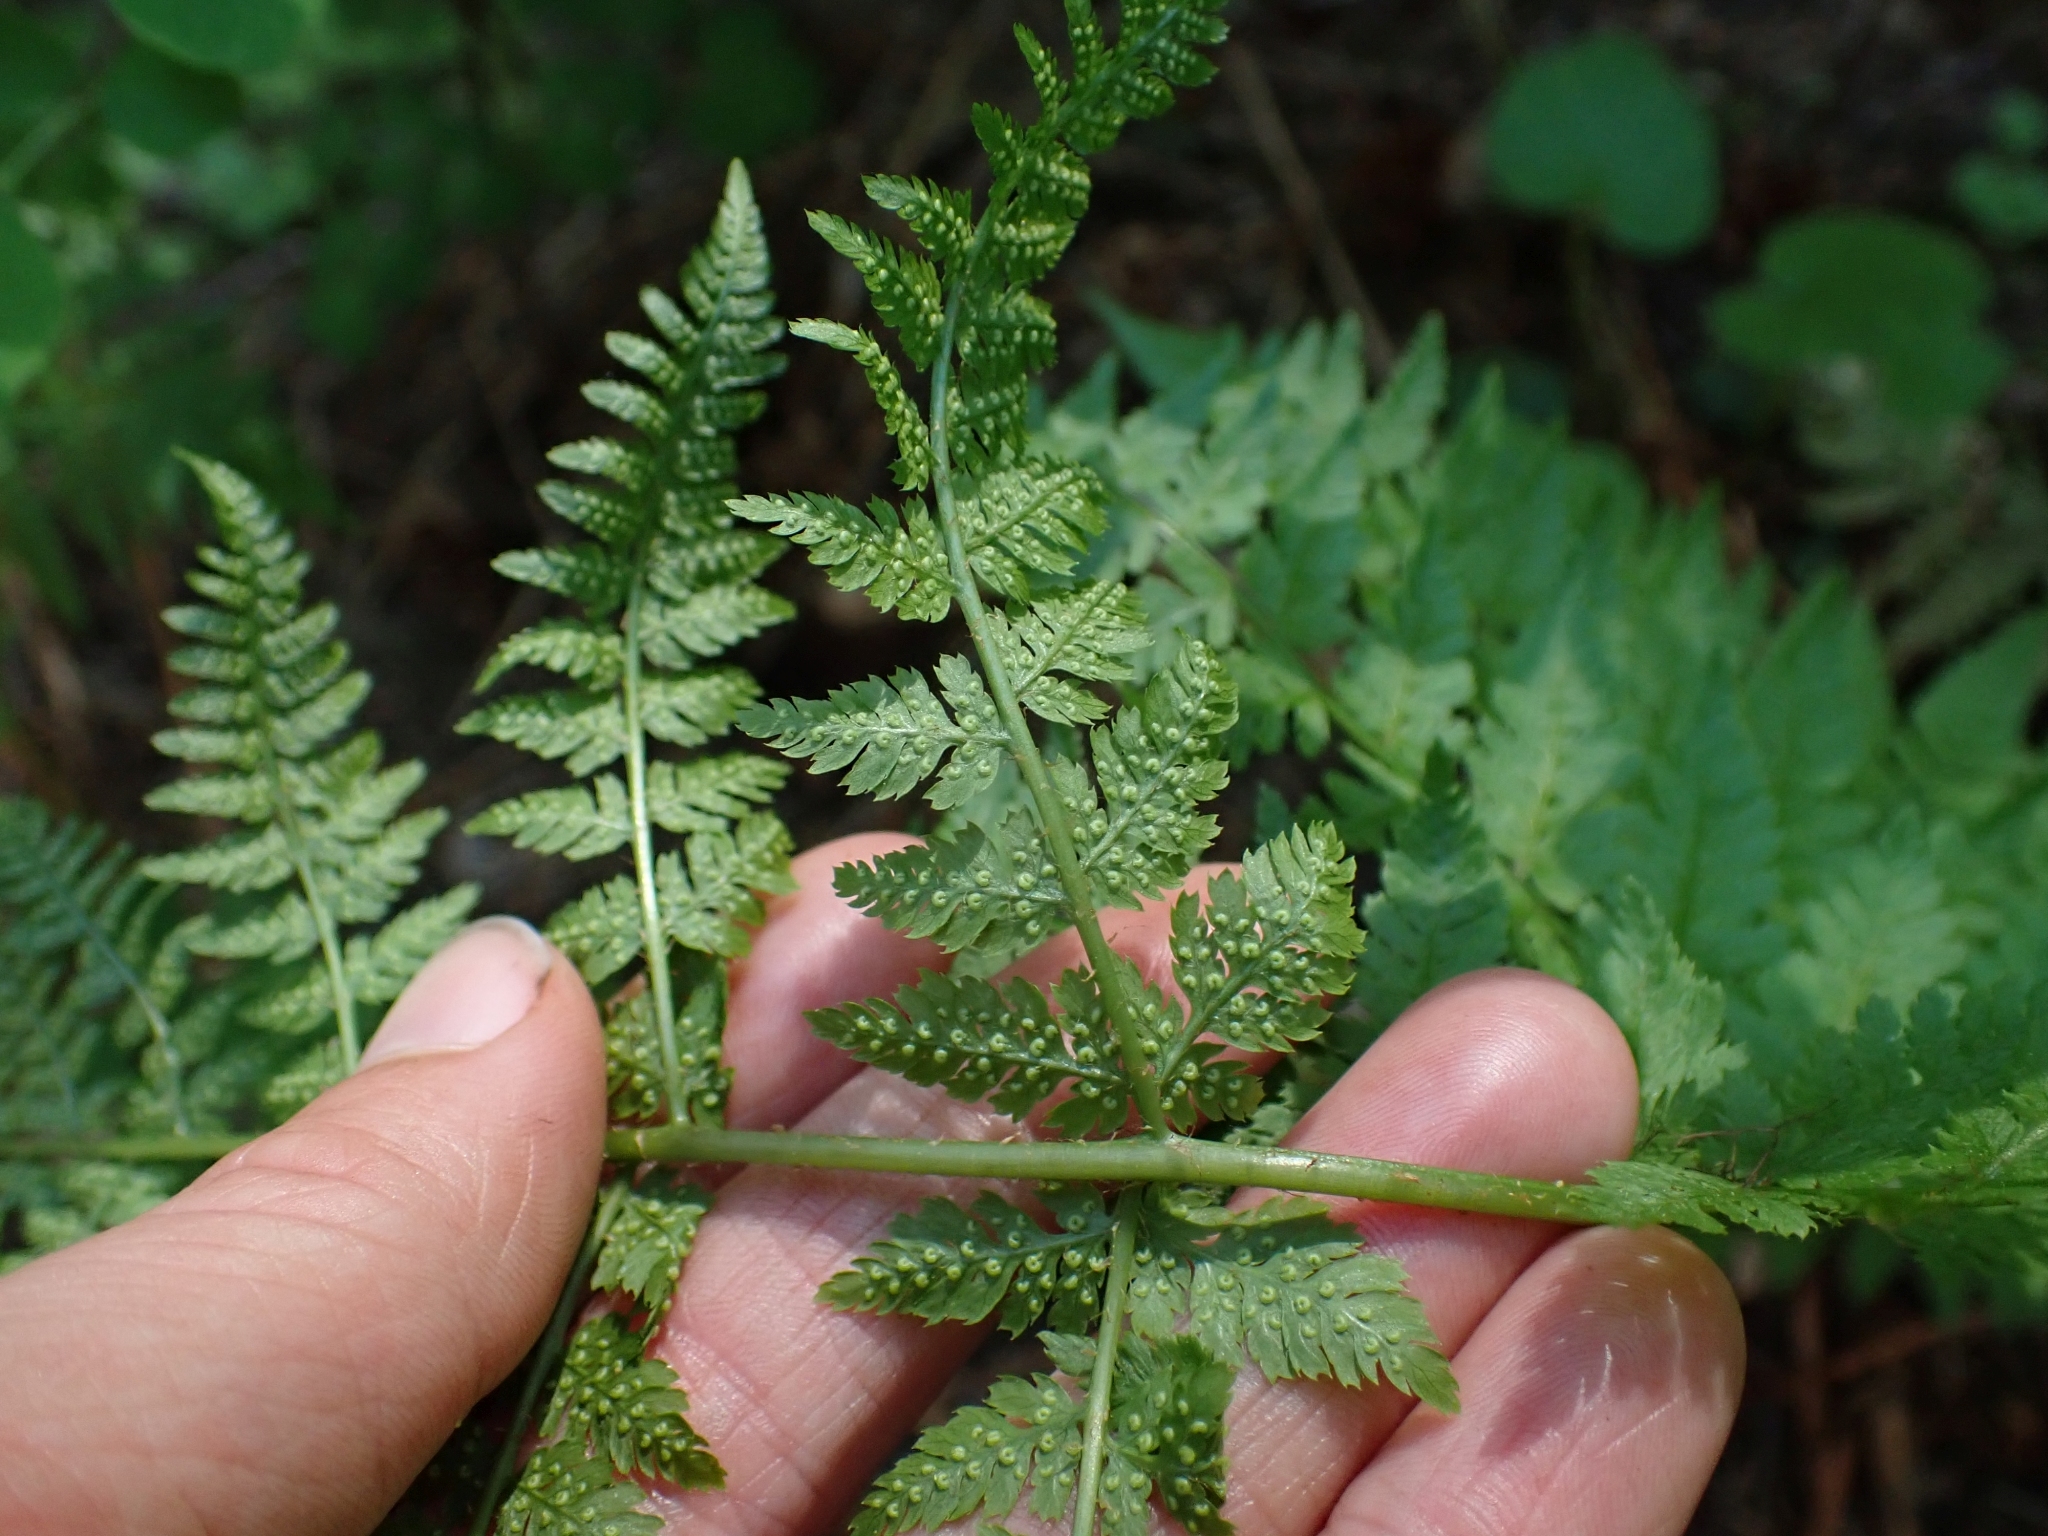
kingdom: Plantae
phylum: Tracheophyta
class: Polypodiopsida
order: Polypodiales
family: Dryopteridaceae
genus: Dryopteris
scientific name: Dryopteris expansa
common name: Northern buckler fern
